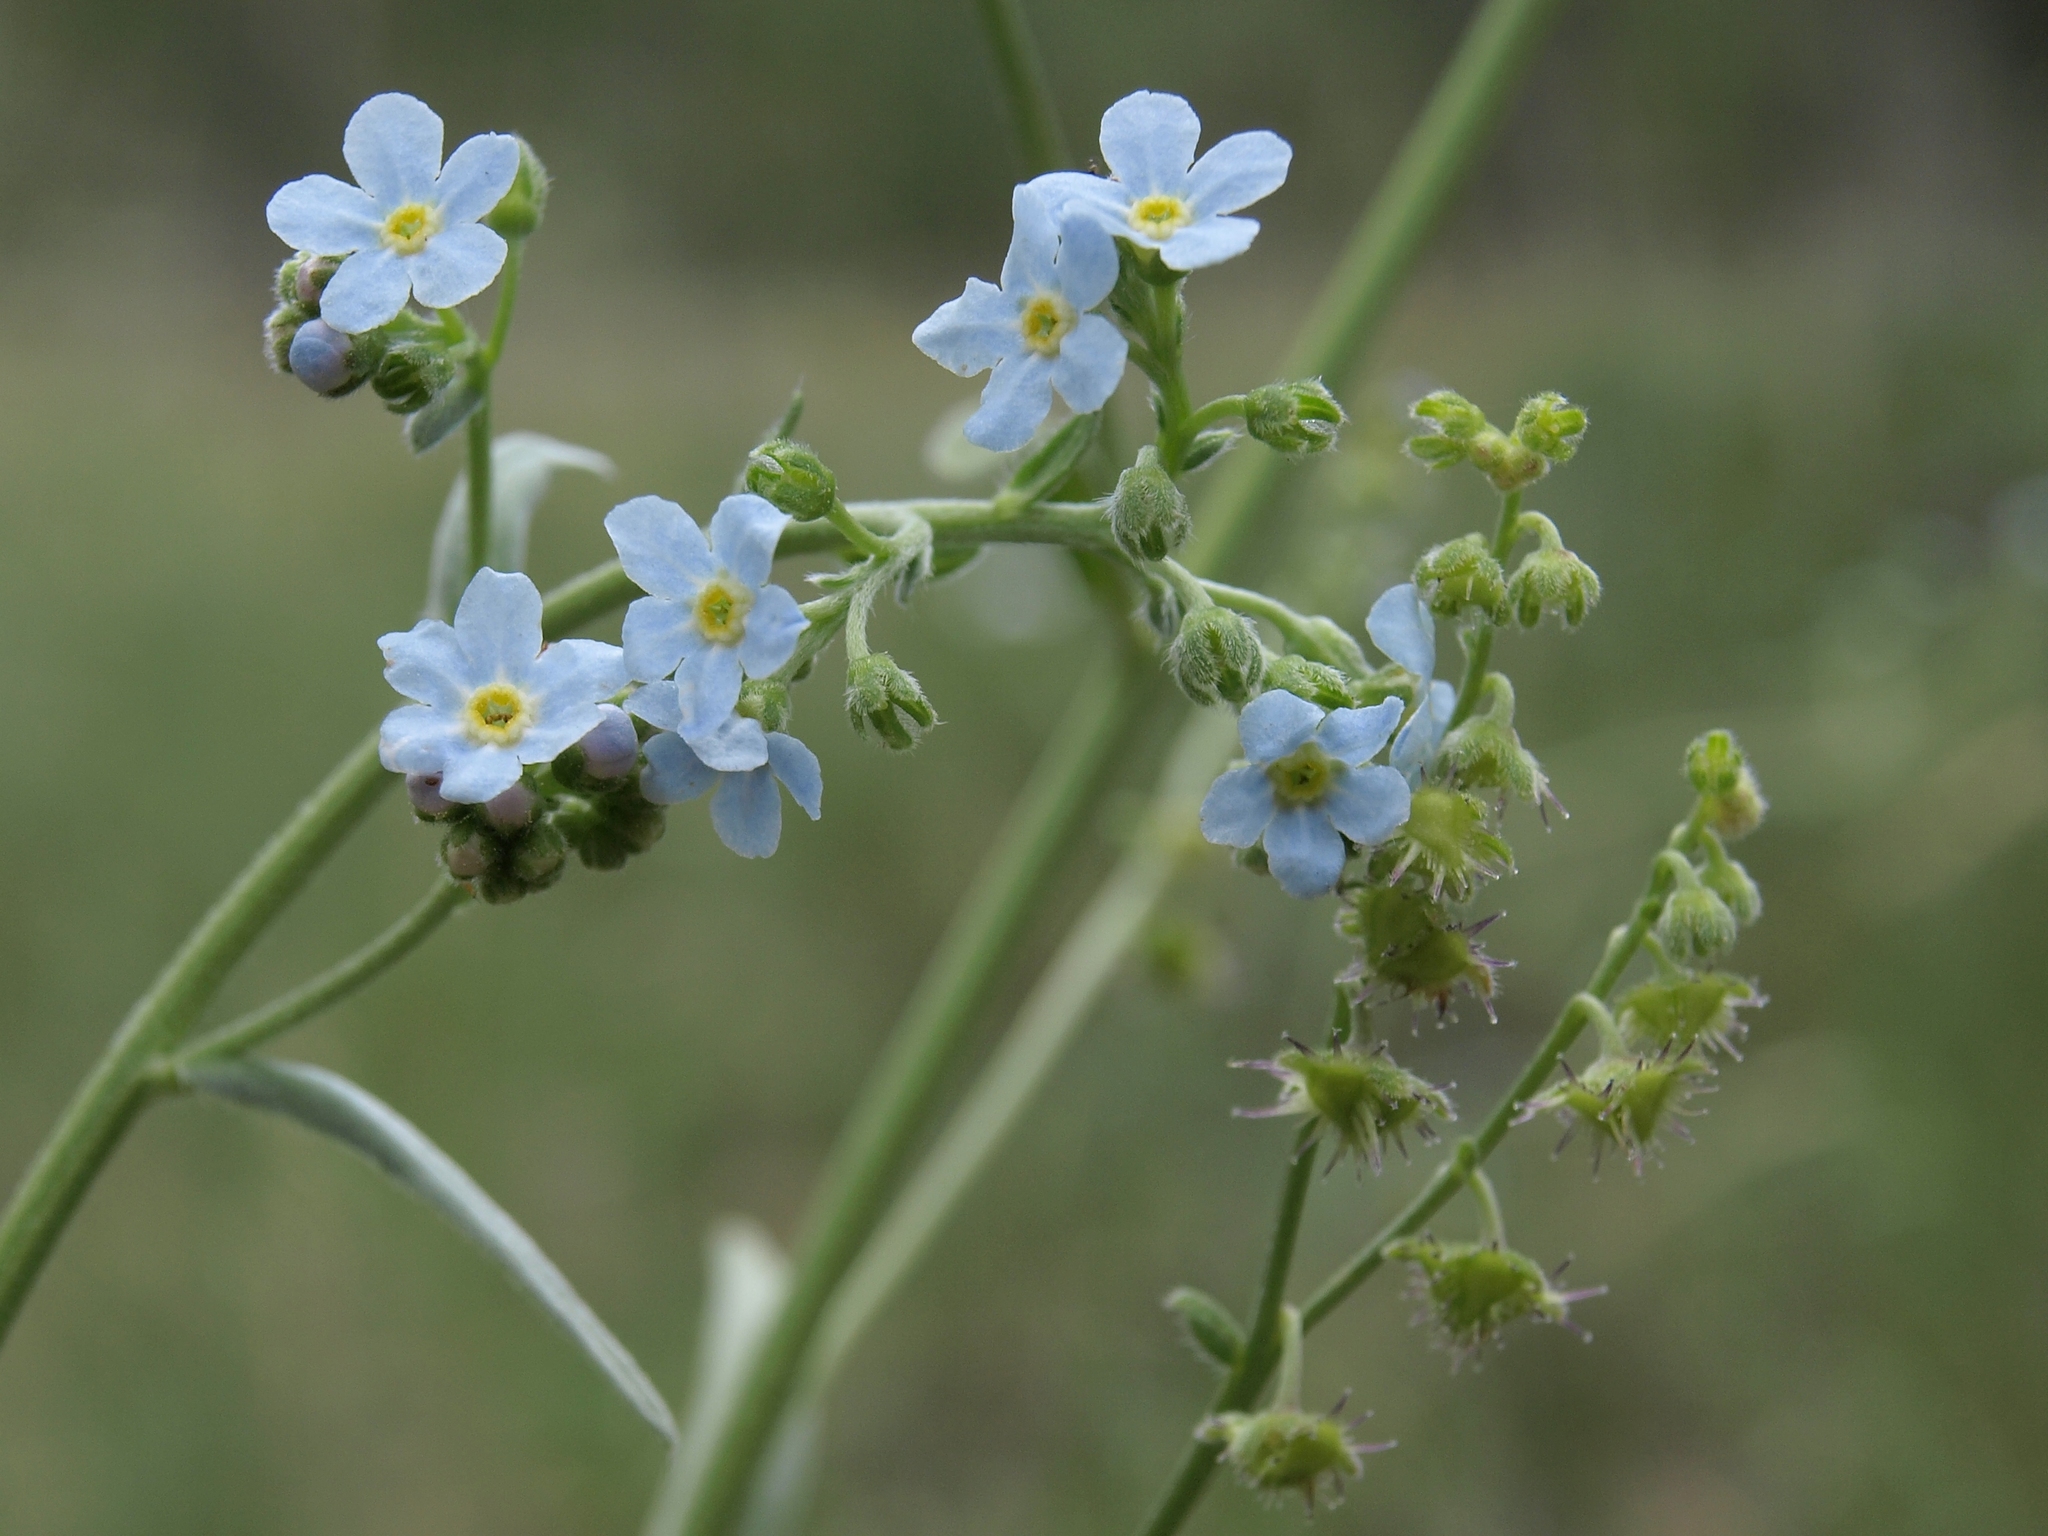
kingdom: Plantae
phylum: Tracheophyta
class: Magnoliopsida
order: Boraginales
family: Boraginaceae
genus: Hackelia
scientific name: Hackelia brevicula
